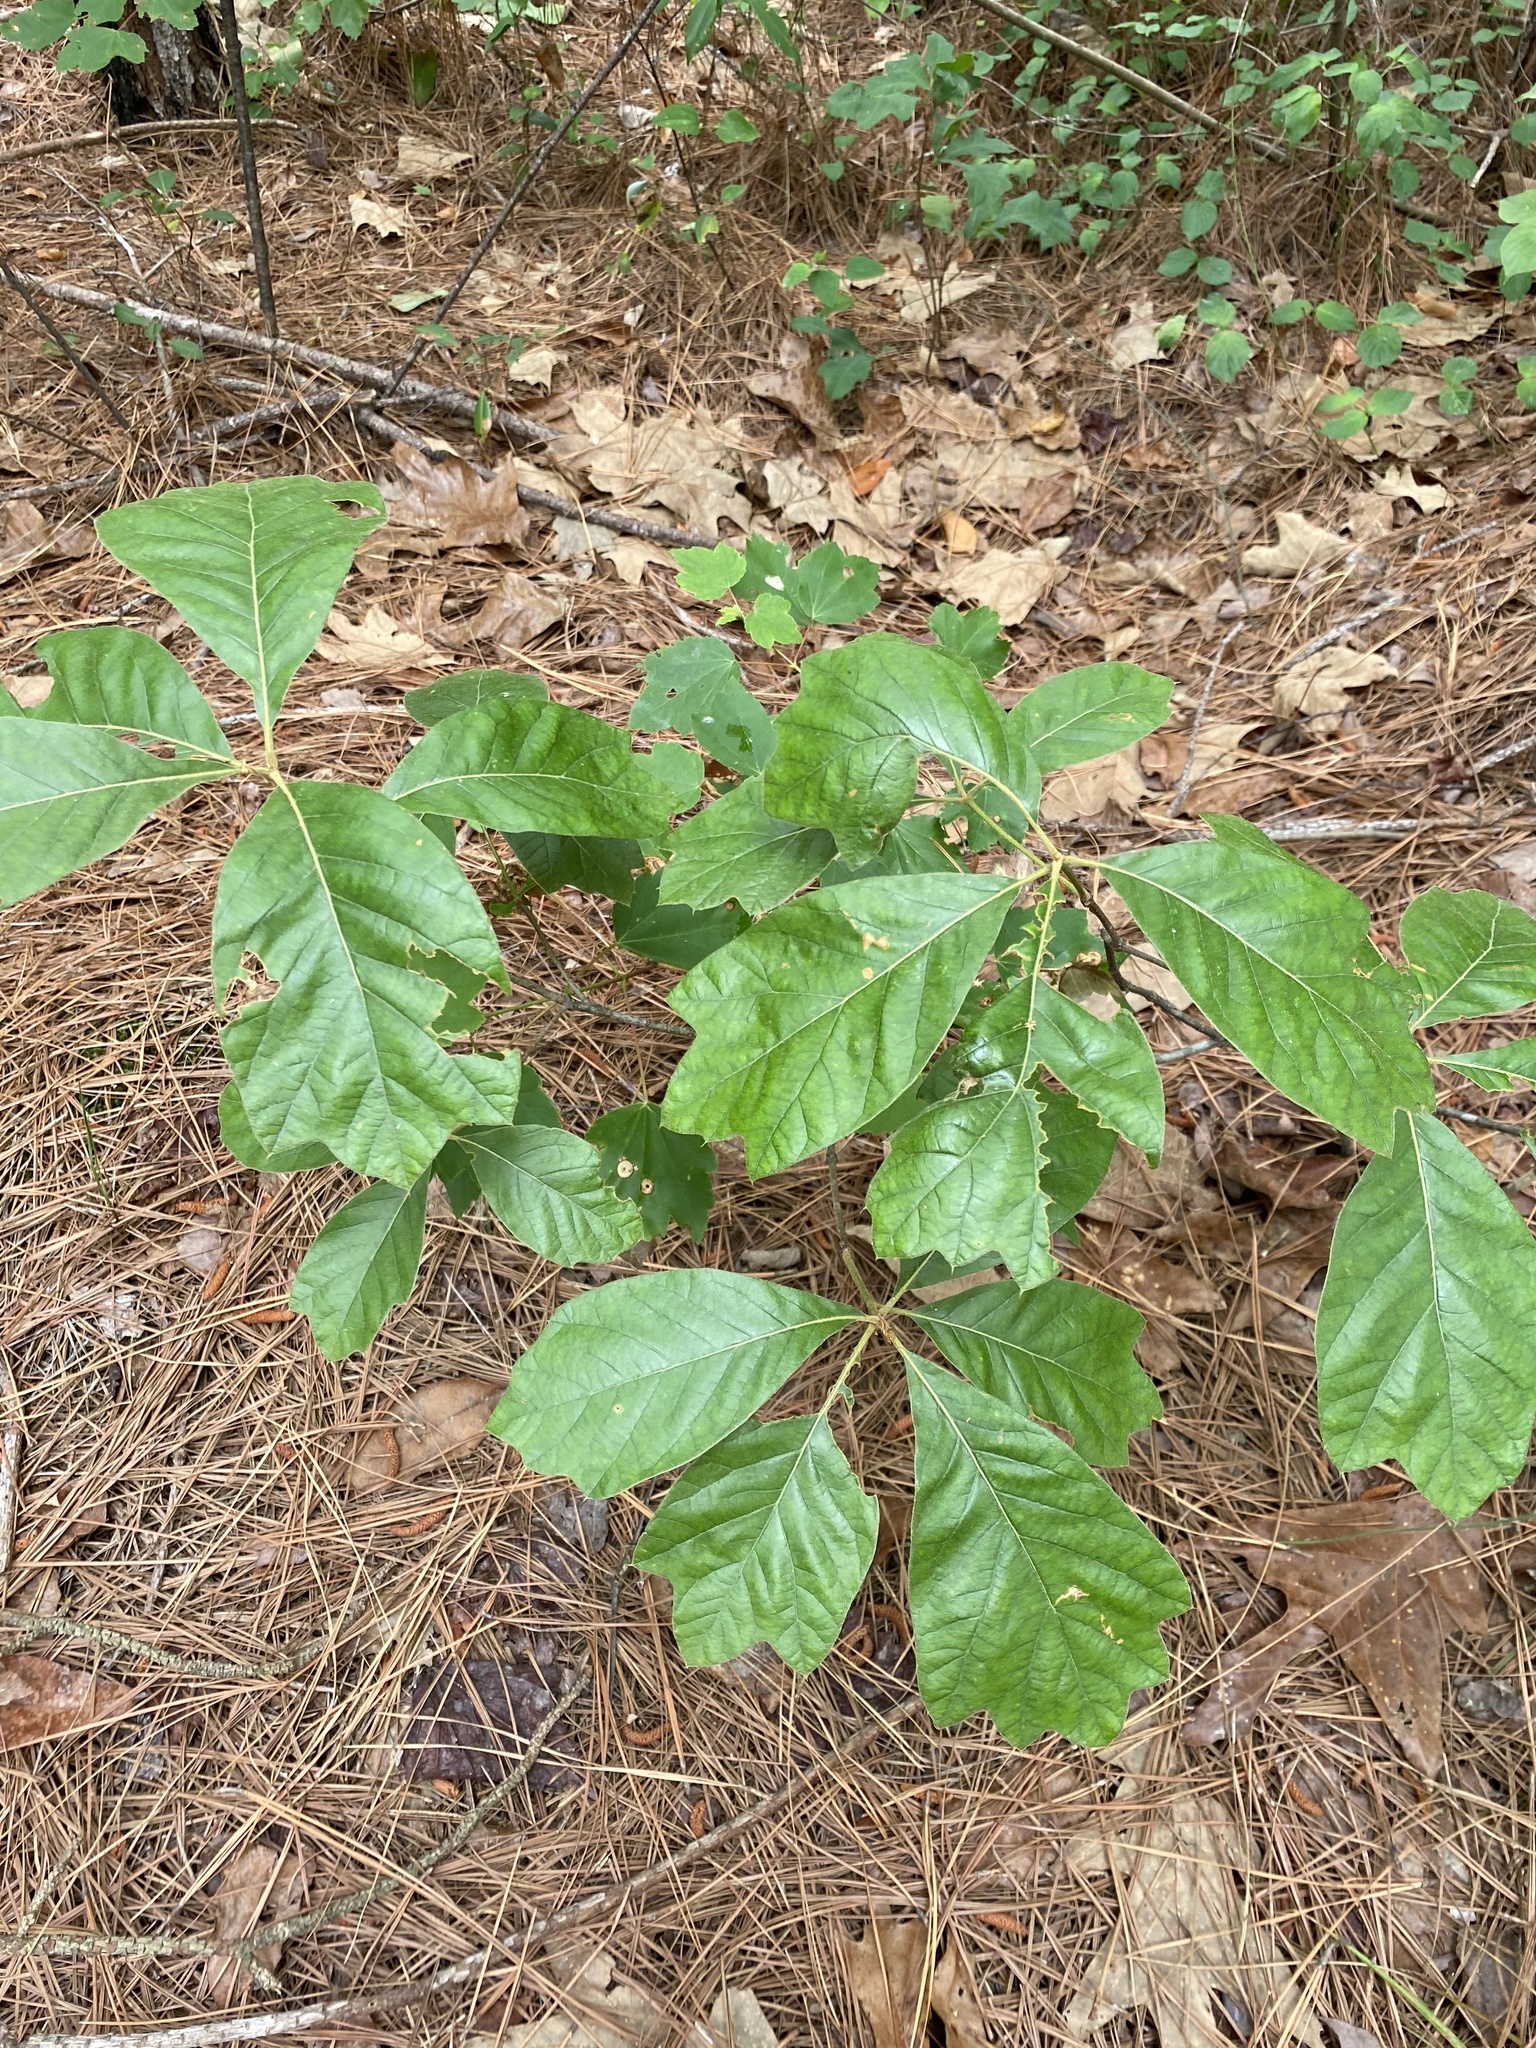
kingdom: Plantae
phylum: Tracheophyta
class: Magnoliopsida
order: Fagales
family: Fagaceae
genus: Quercus
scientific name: Quercus falcata
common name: Southern red oak
